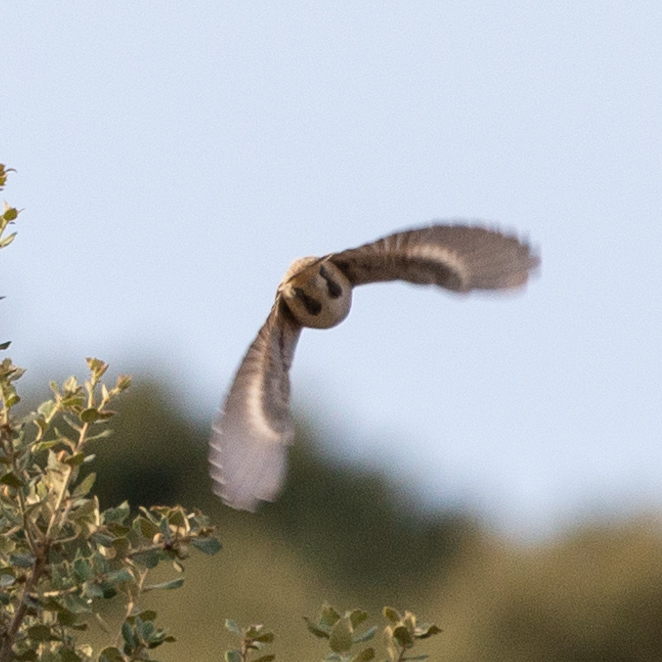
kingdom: Animalia
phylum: Chordata
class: Aves
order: Passeriformes
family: Laniidae
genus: Lanius
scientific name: Lanius senator
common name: Woodchat shrike
